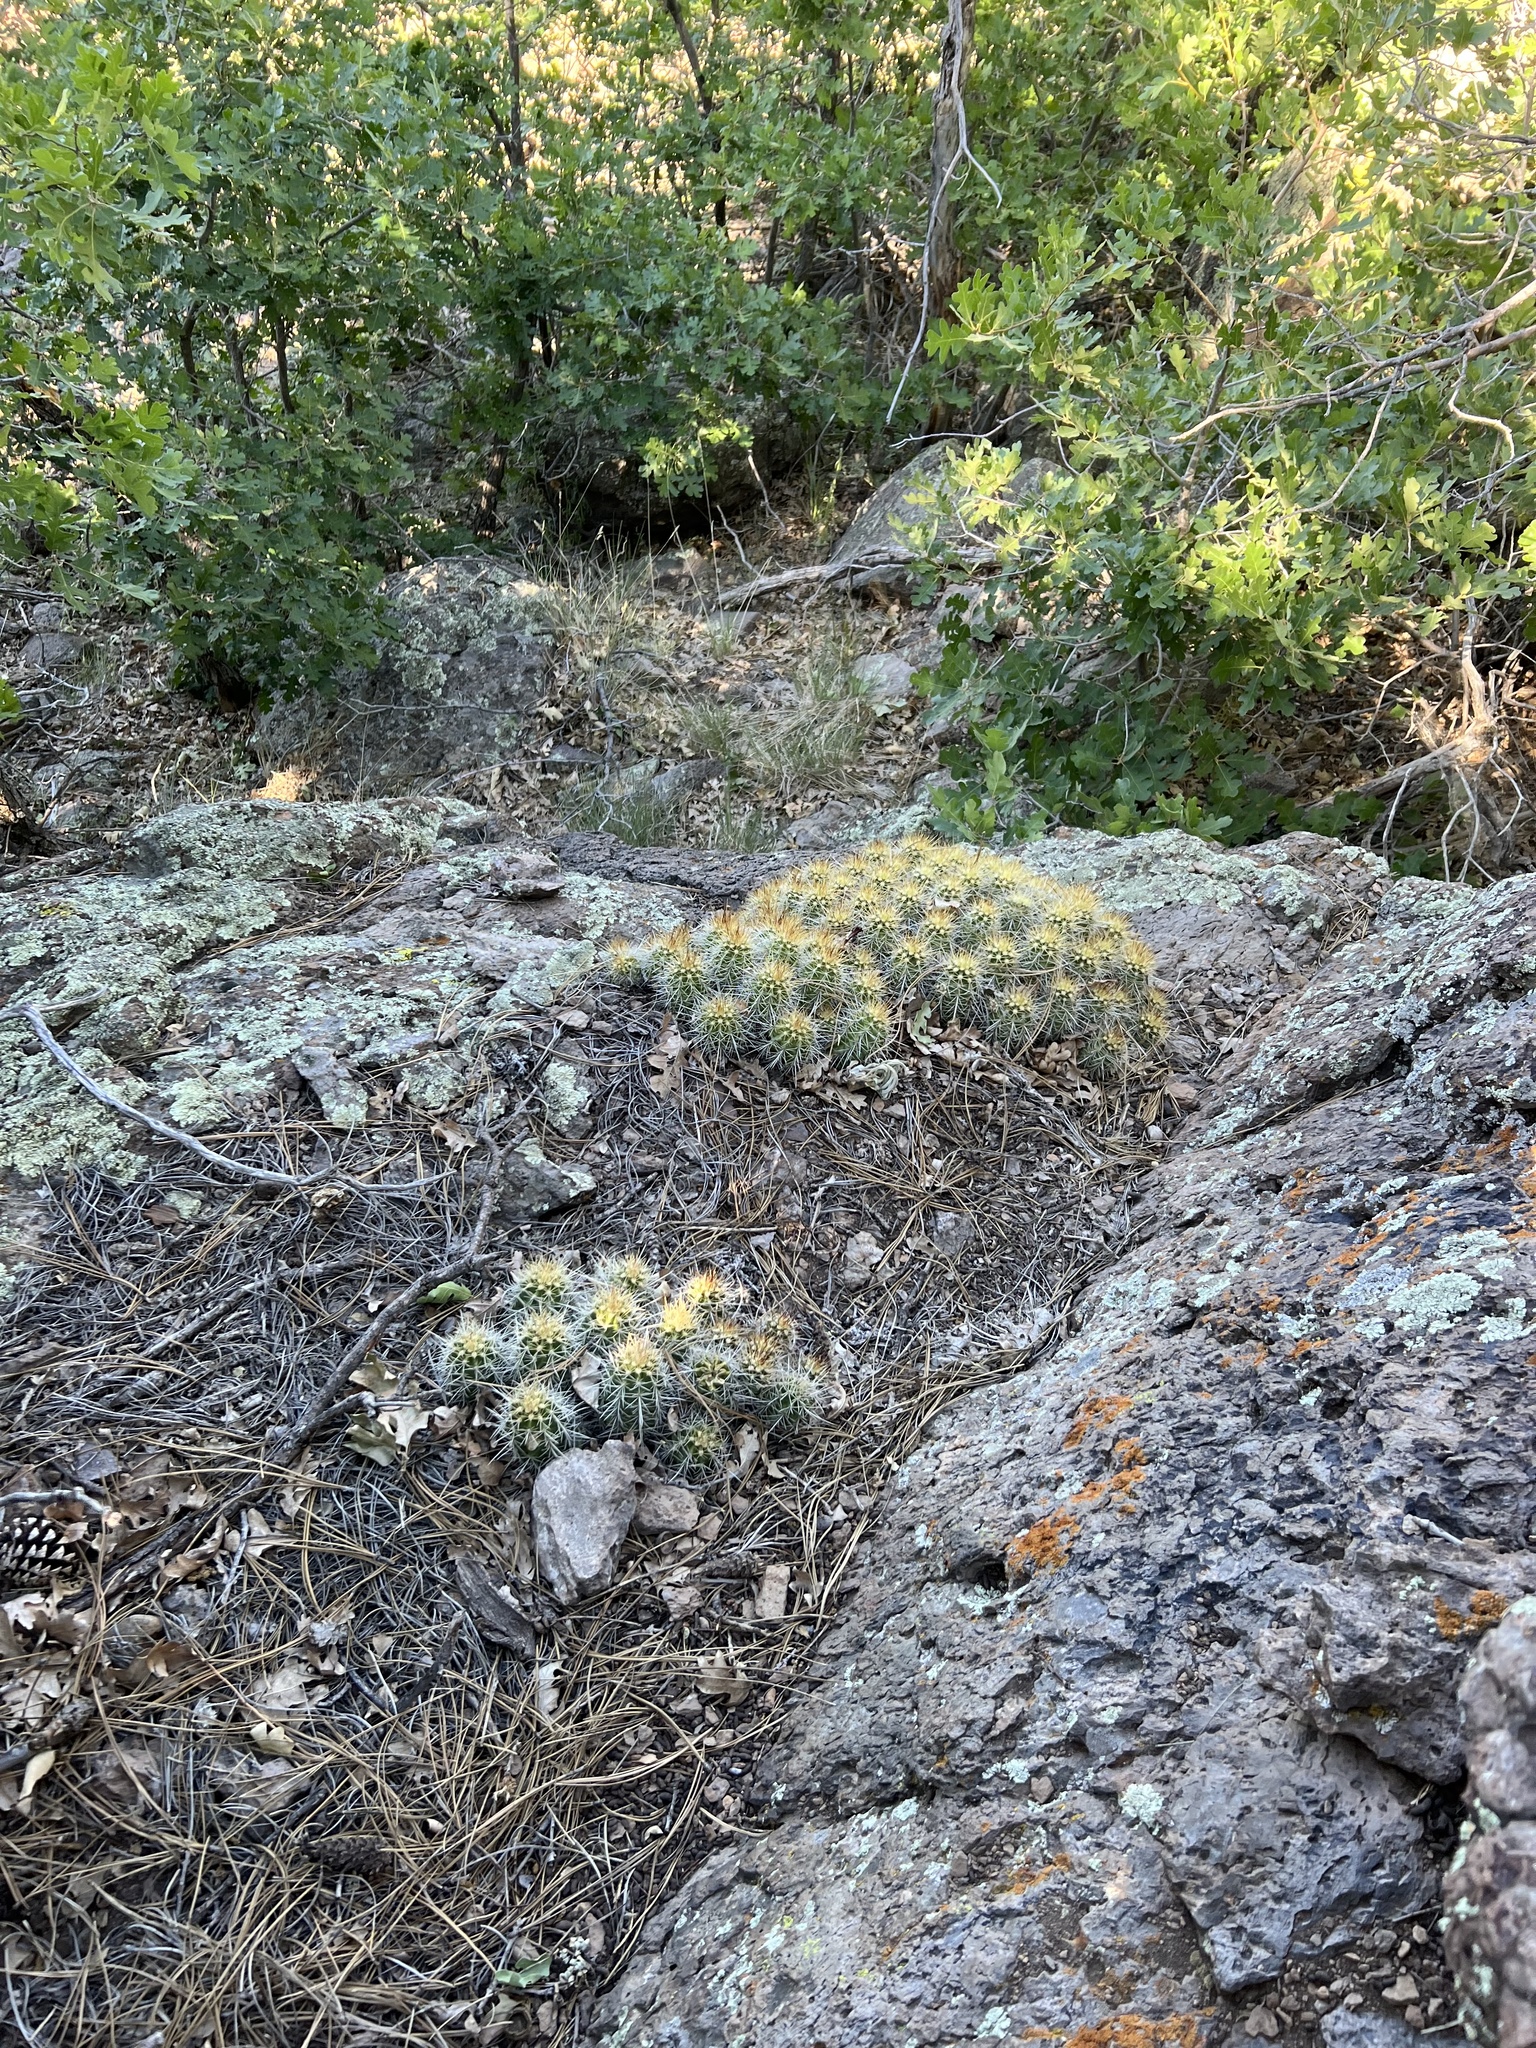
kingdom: Plantae
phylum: Tracheophyta
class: Magnoliopsida
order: Caryophyllales
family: Cactaceae
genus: Echinocereus
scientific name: Echinocereus bakeri
